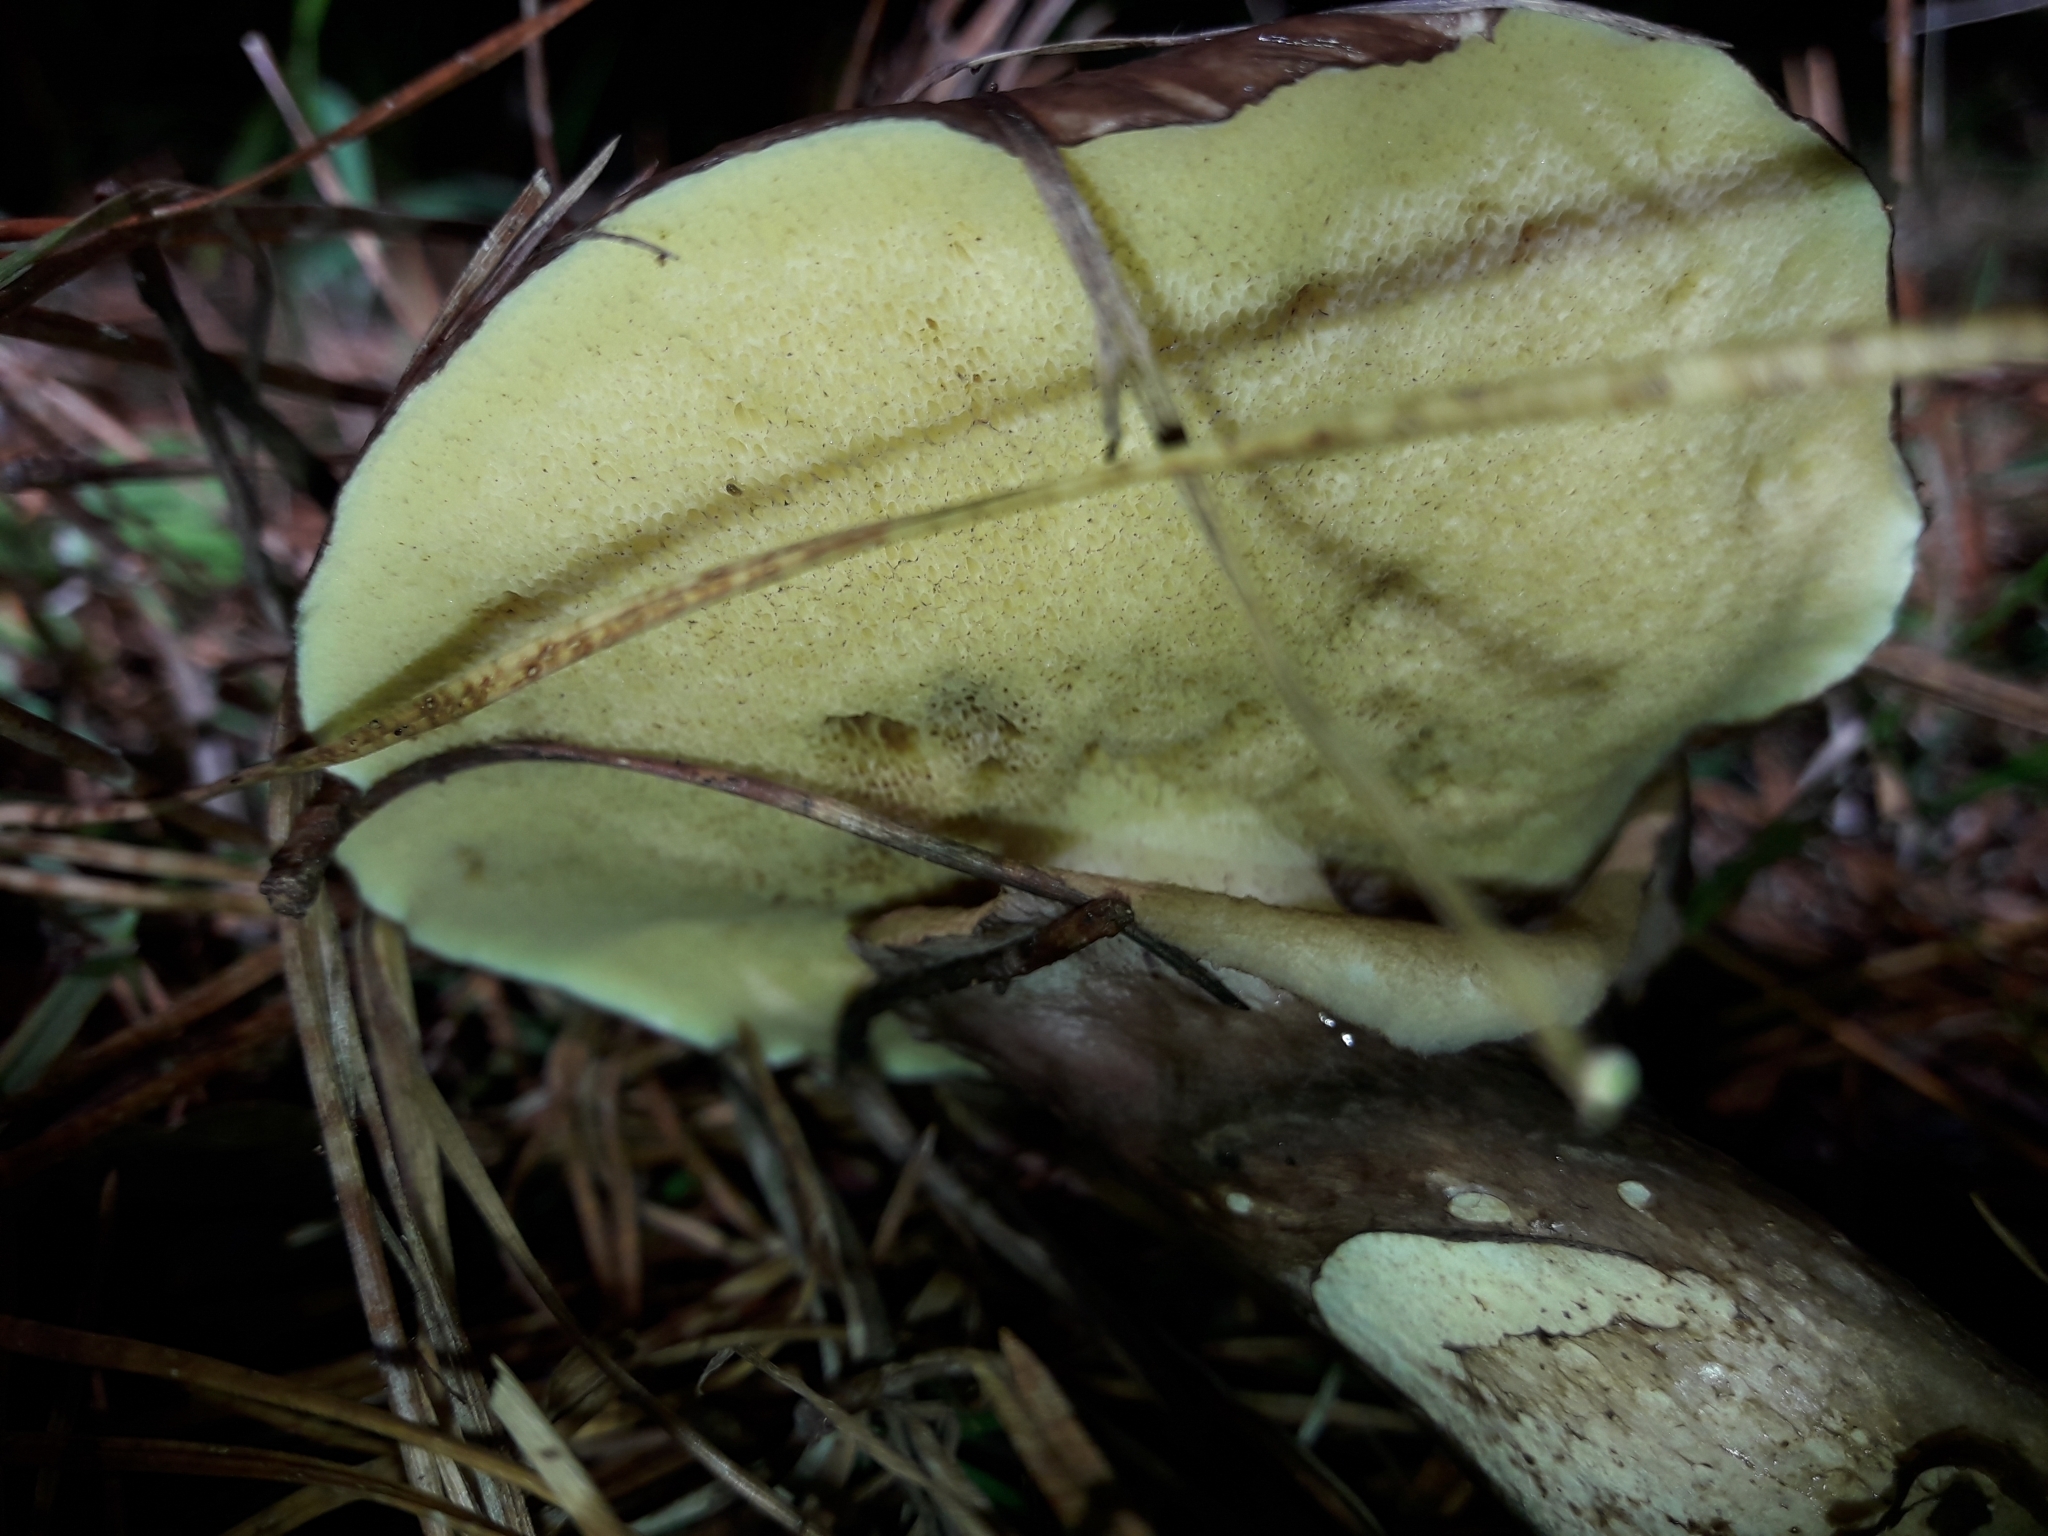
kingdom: Fungi
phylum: Basidiomycota
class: Agaricomycetes
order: Boletales
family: Suillaceae
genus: Suillus
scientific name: Suillus luteus
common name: Slippery jack
